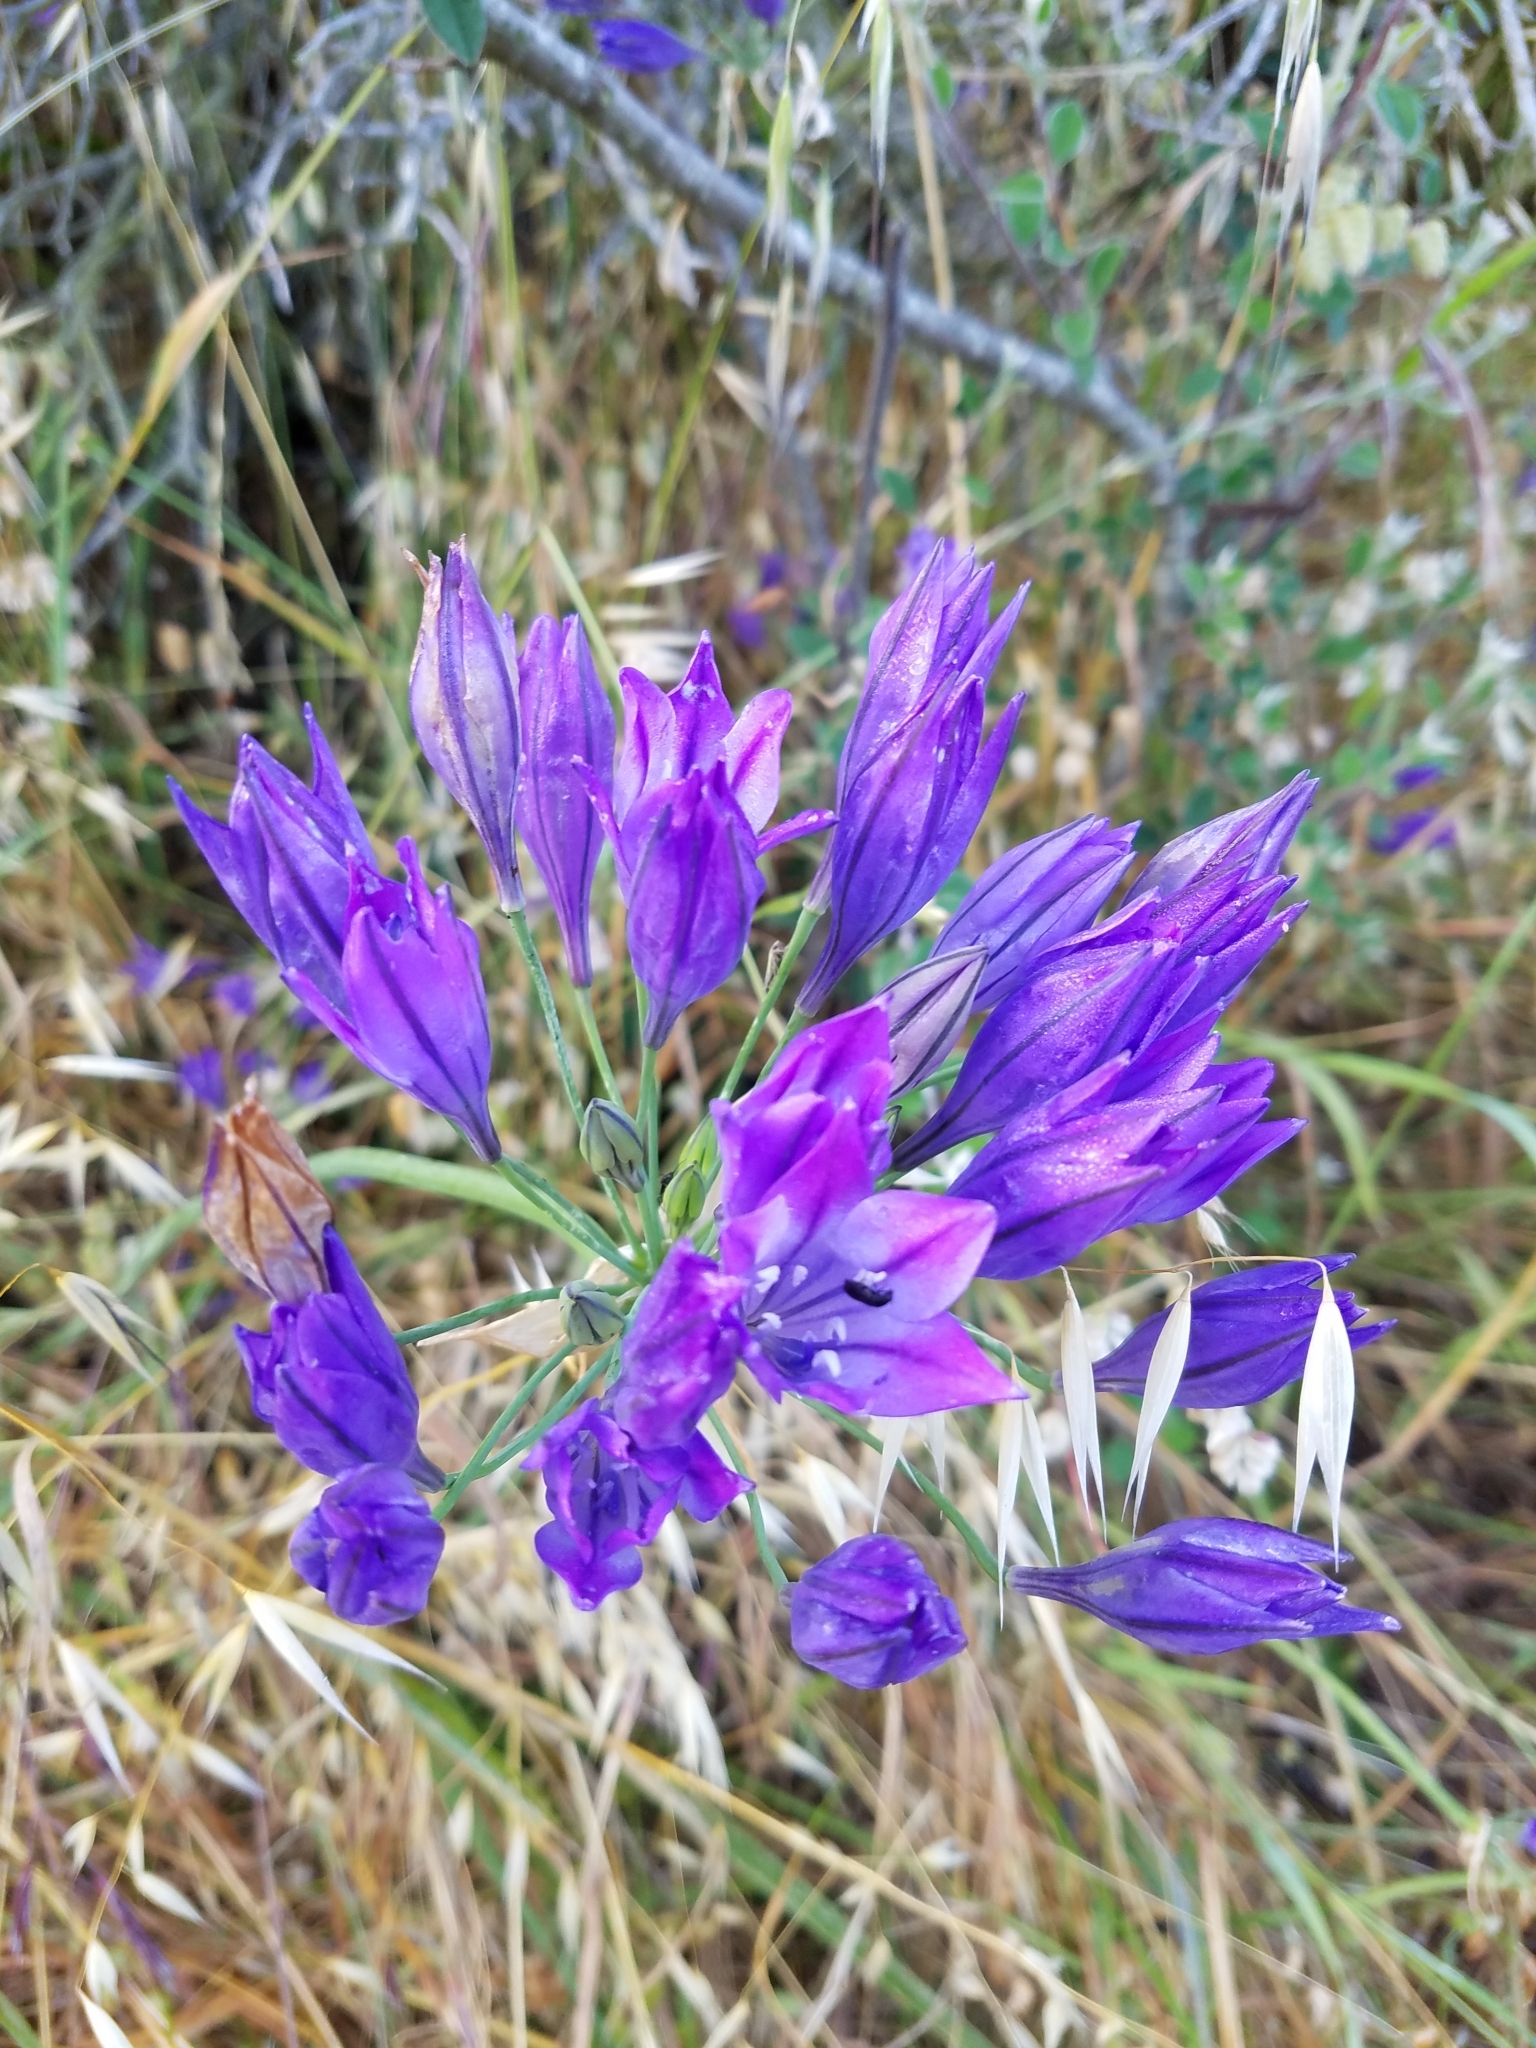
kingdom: Plantae
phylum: Tracheophyta
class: Liliopsida
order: Asparagales
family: Asparagaceae
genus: Triteleia
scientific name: Triteleia laxa
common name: Triplet-lily
